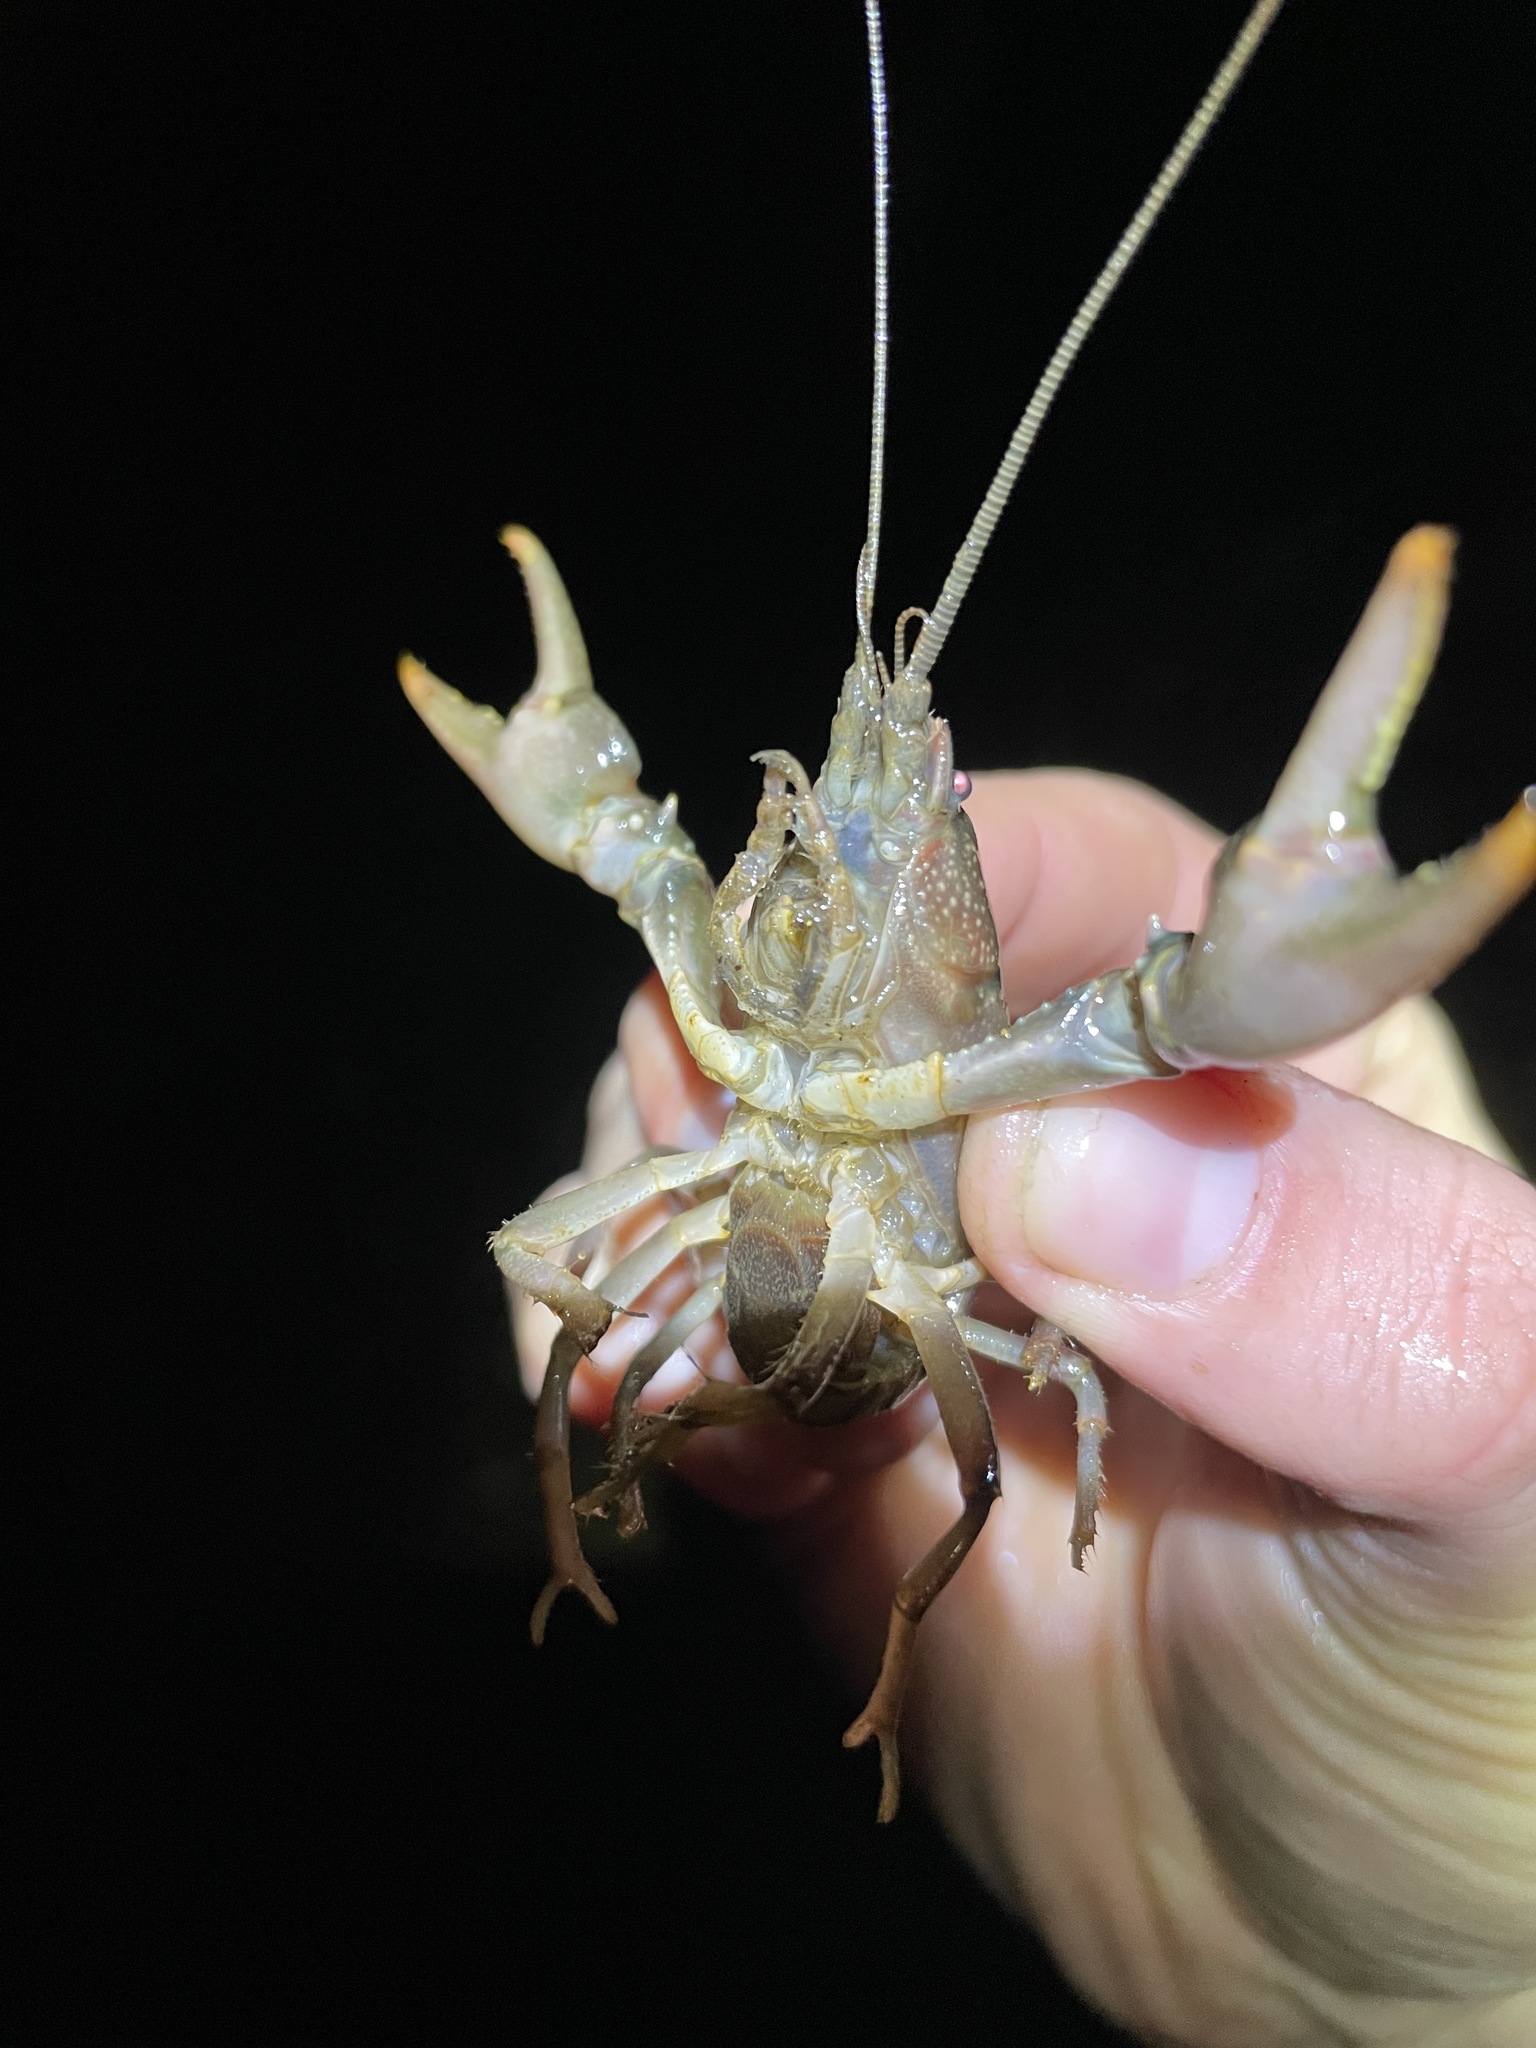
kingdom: Animalia
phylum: Arthropoda
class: Malacostraca
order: Decapoda
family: Cambaridae
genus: Cambarus
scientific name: Cambarus appalachiensis
